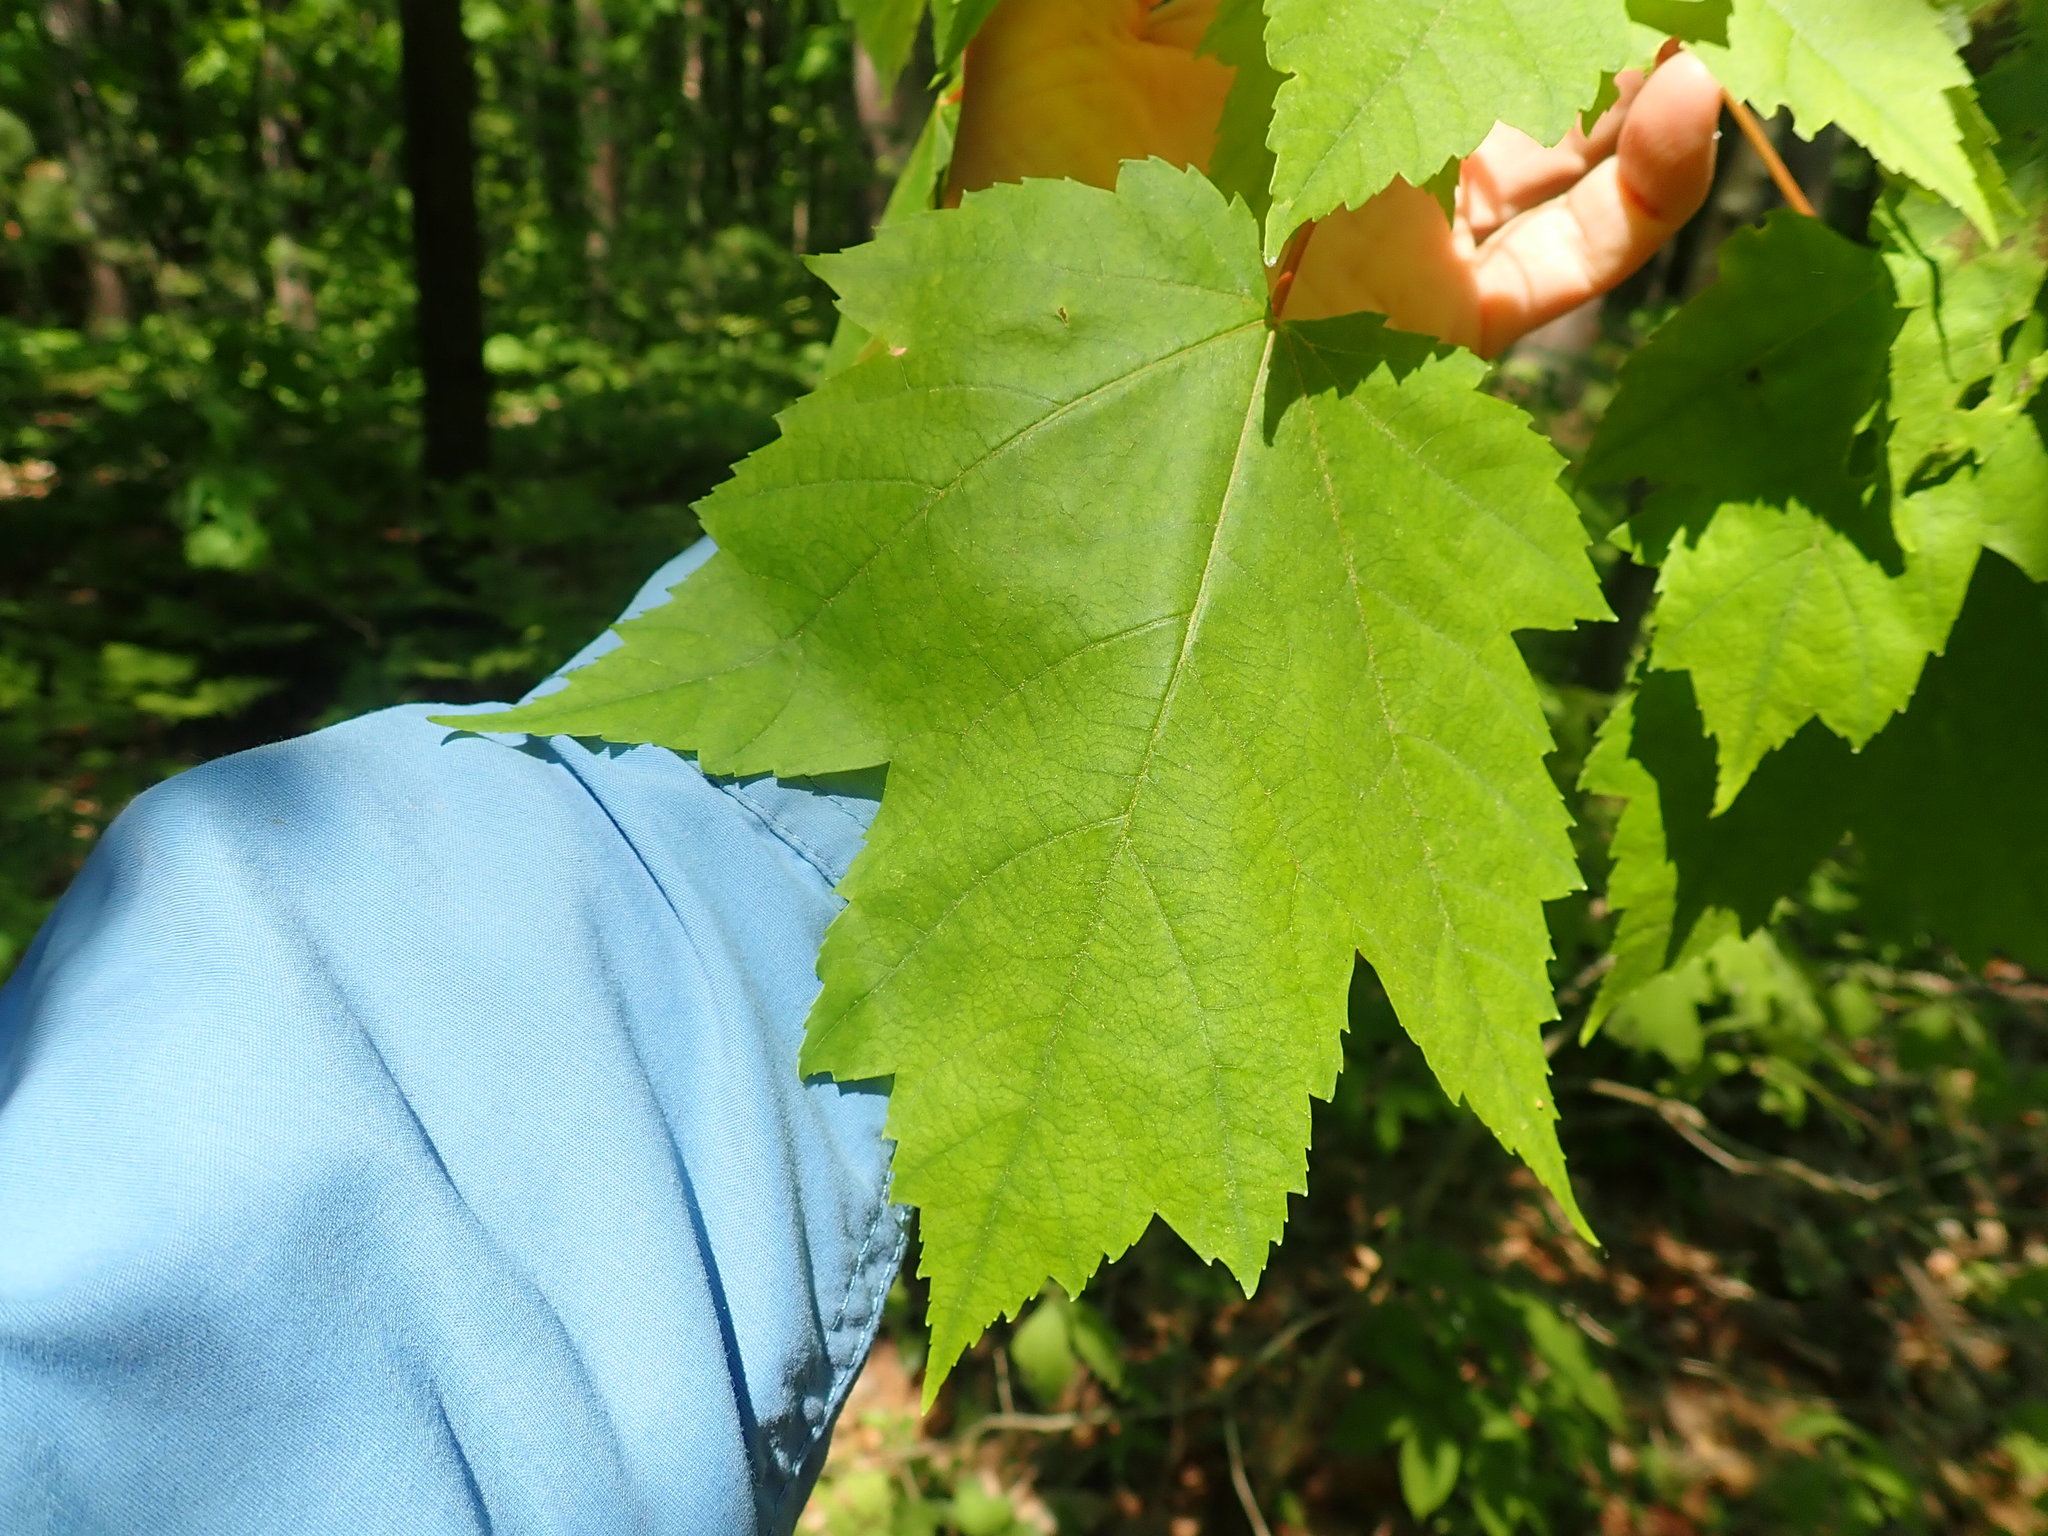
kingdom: Plantae
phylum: Tracheophyta
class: Magnoliopsida
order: Sapindales
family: Sapindaceae
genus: Acer
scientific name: Acer rubrum
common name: Red maple
